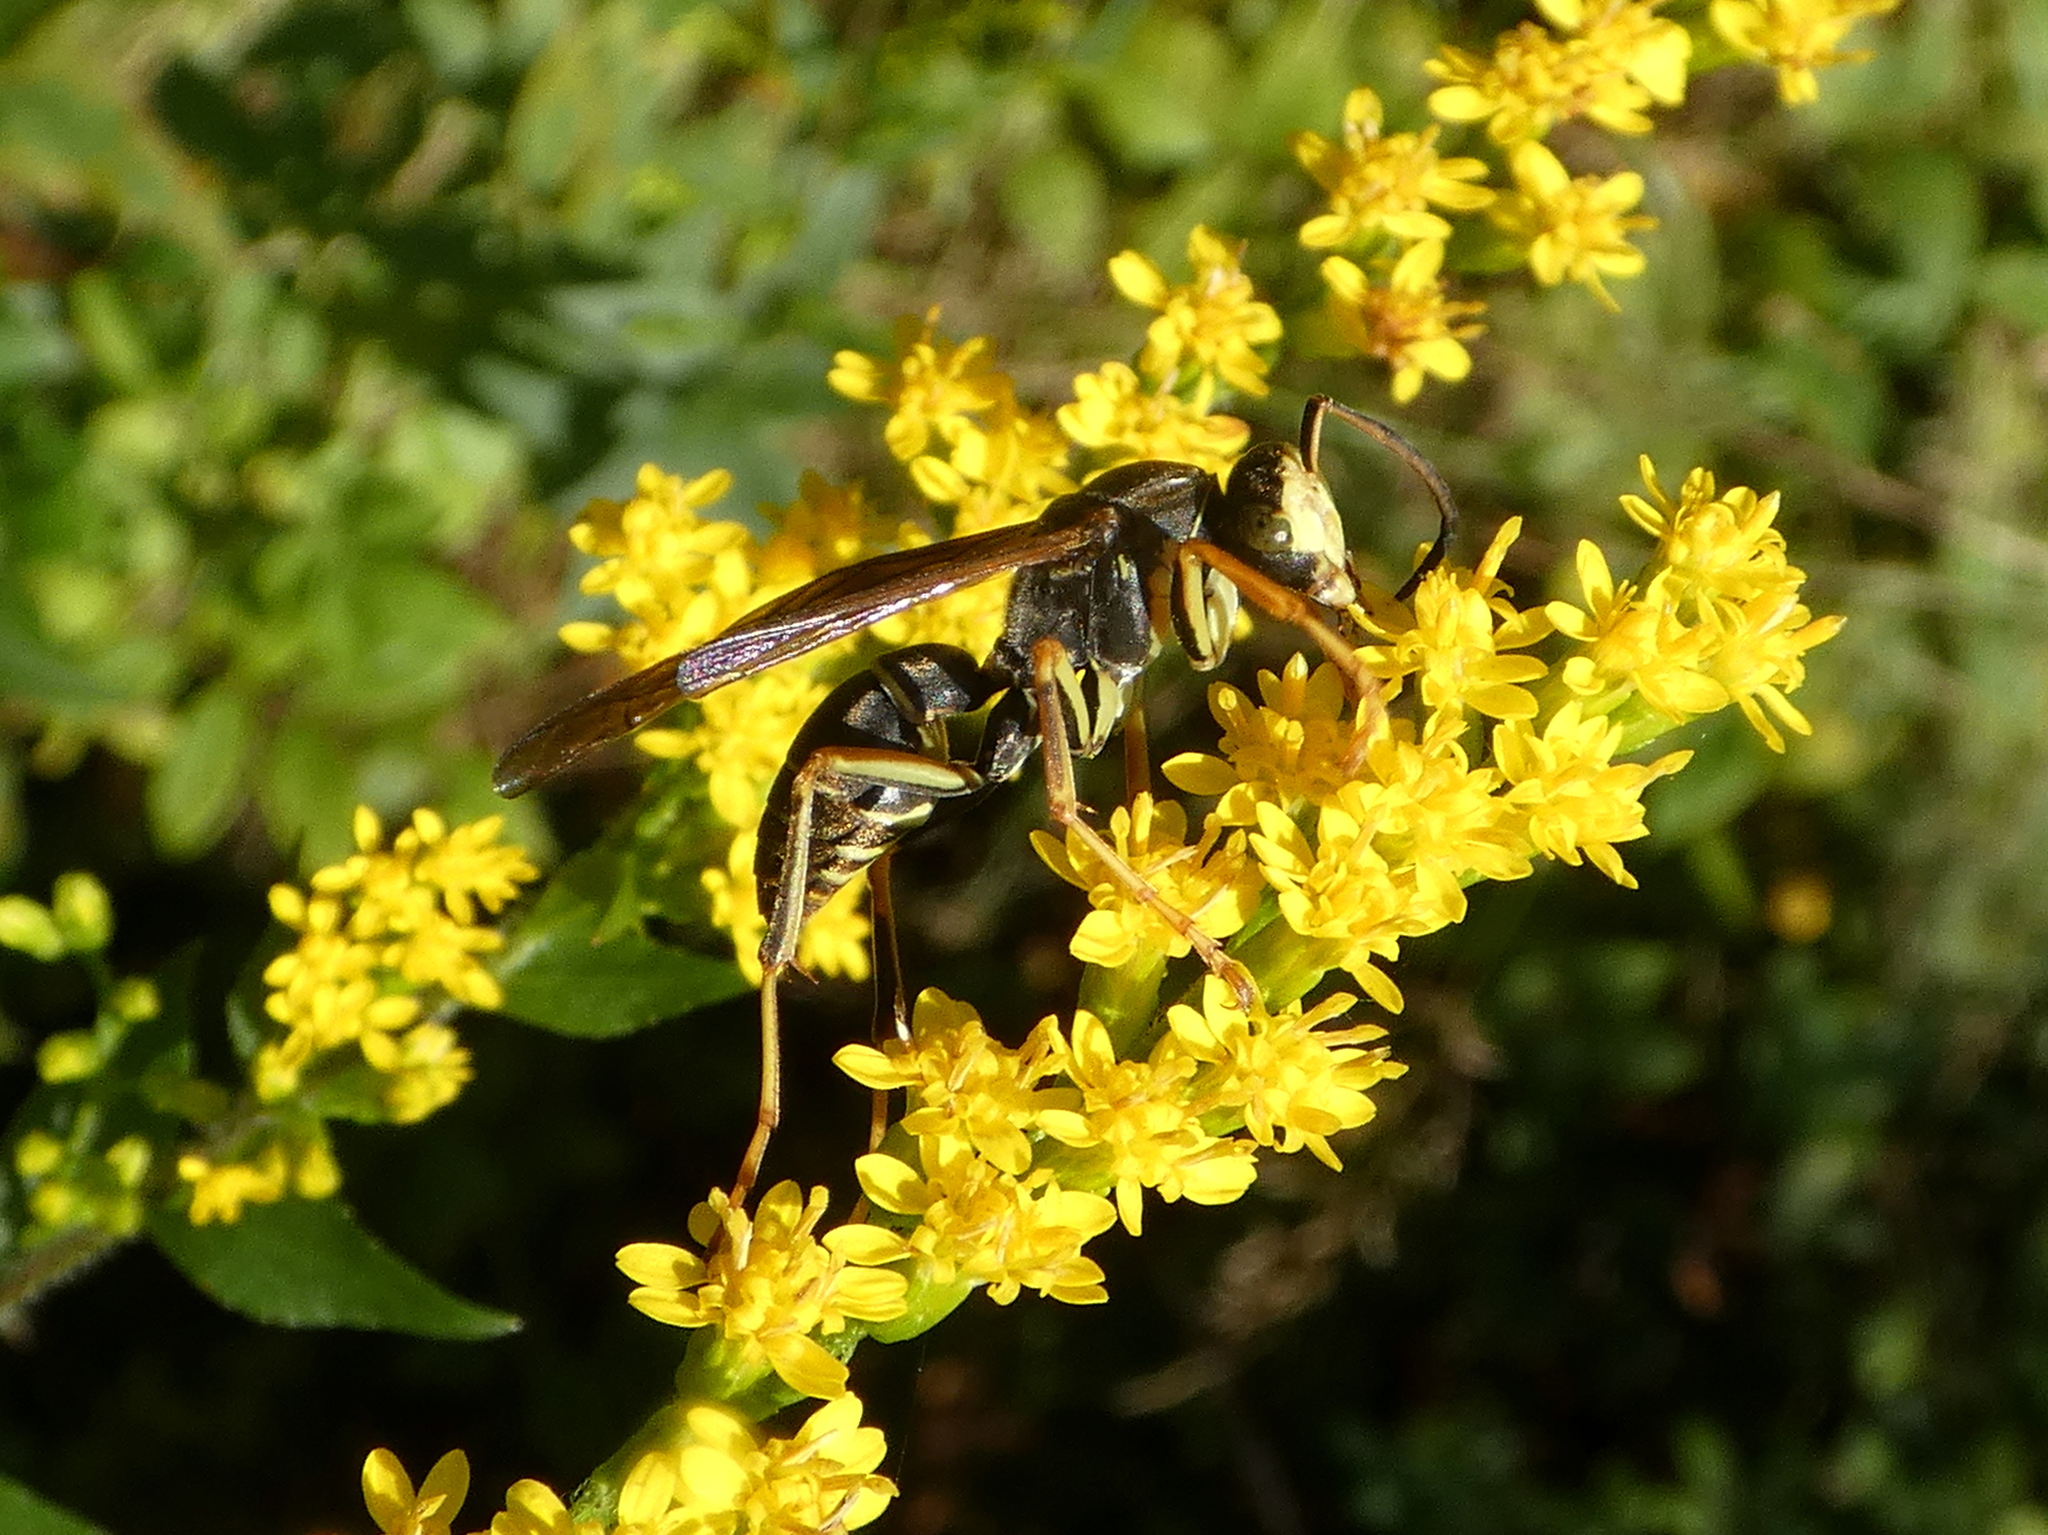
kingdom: Animalia
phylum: Arthropoda
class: Insecta
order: Hymenoptera
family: Eumenidae
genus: Polistes
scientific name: Polistes fuscatus
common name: Dark paper wasp
